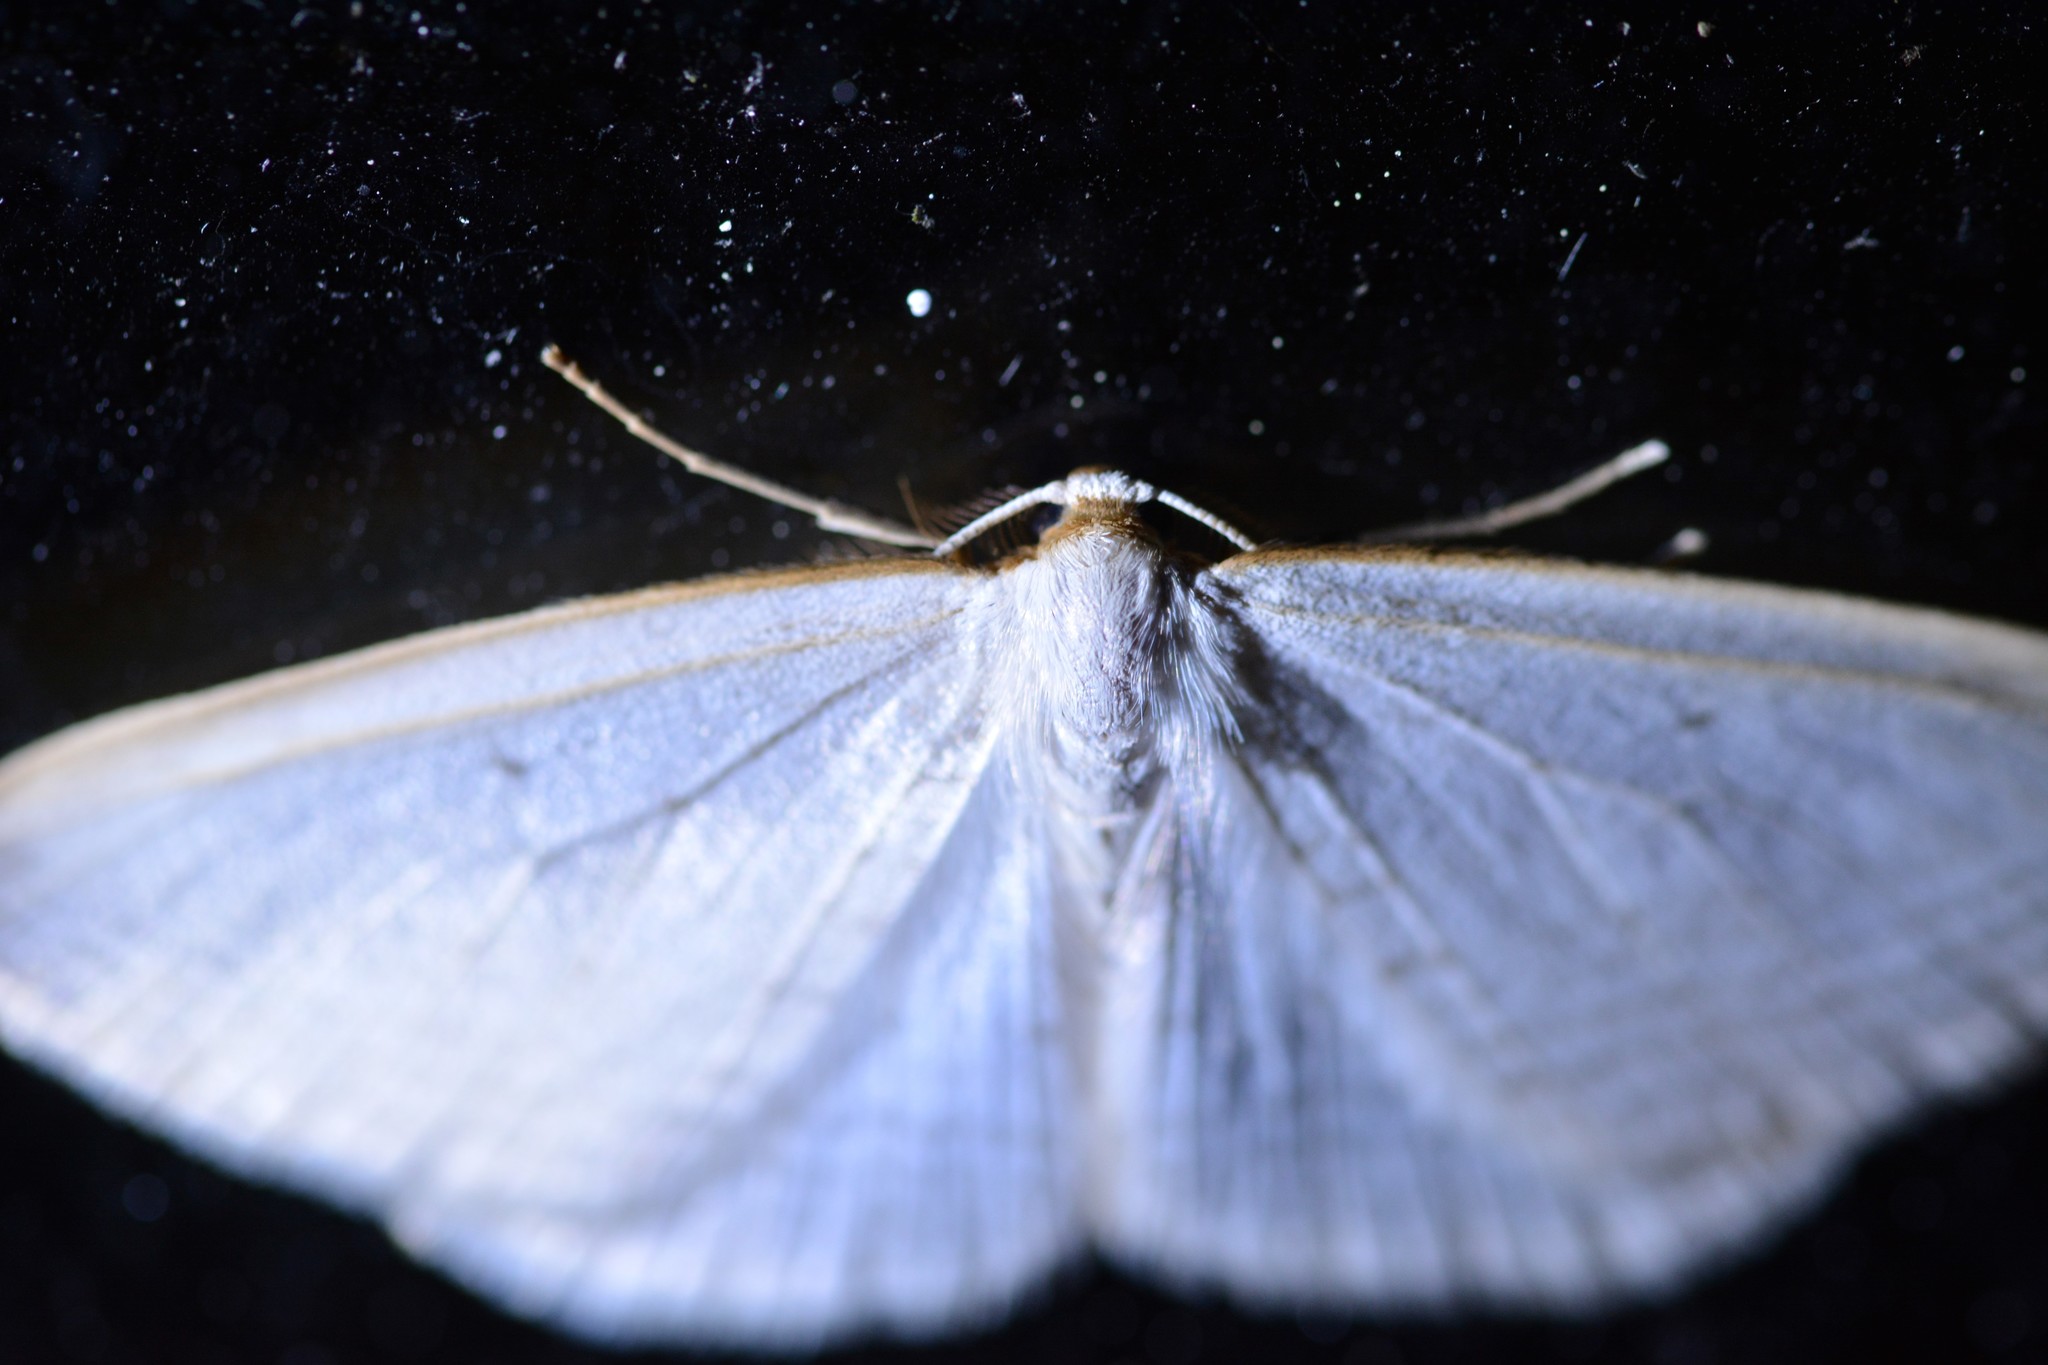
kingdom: Animalia
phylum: Arthropoda
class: Insecta
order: Lepidoptera
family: Geometridae
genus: Orthoclydon
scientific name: Orthoclydon praefectata
